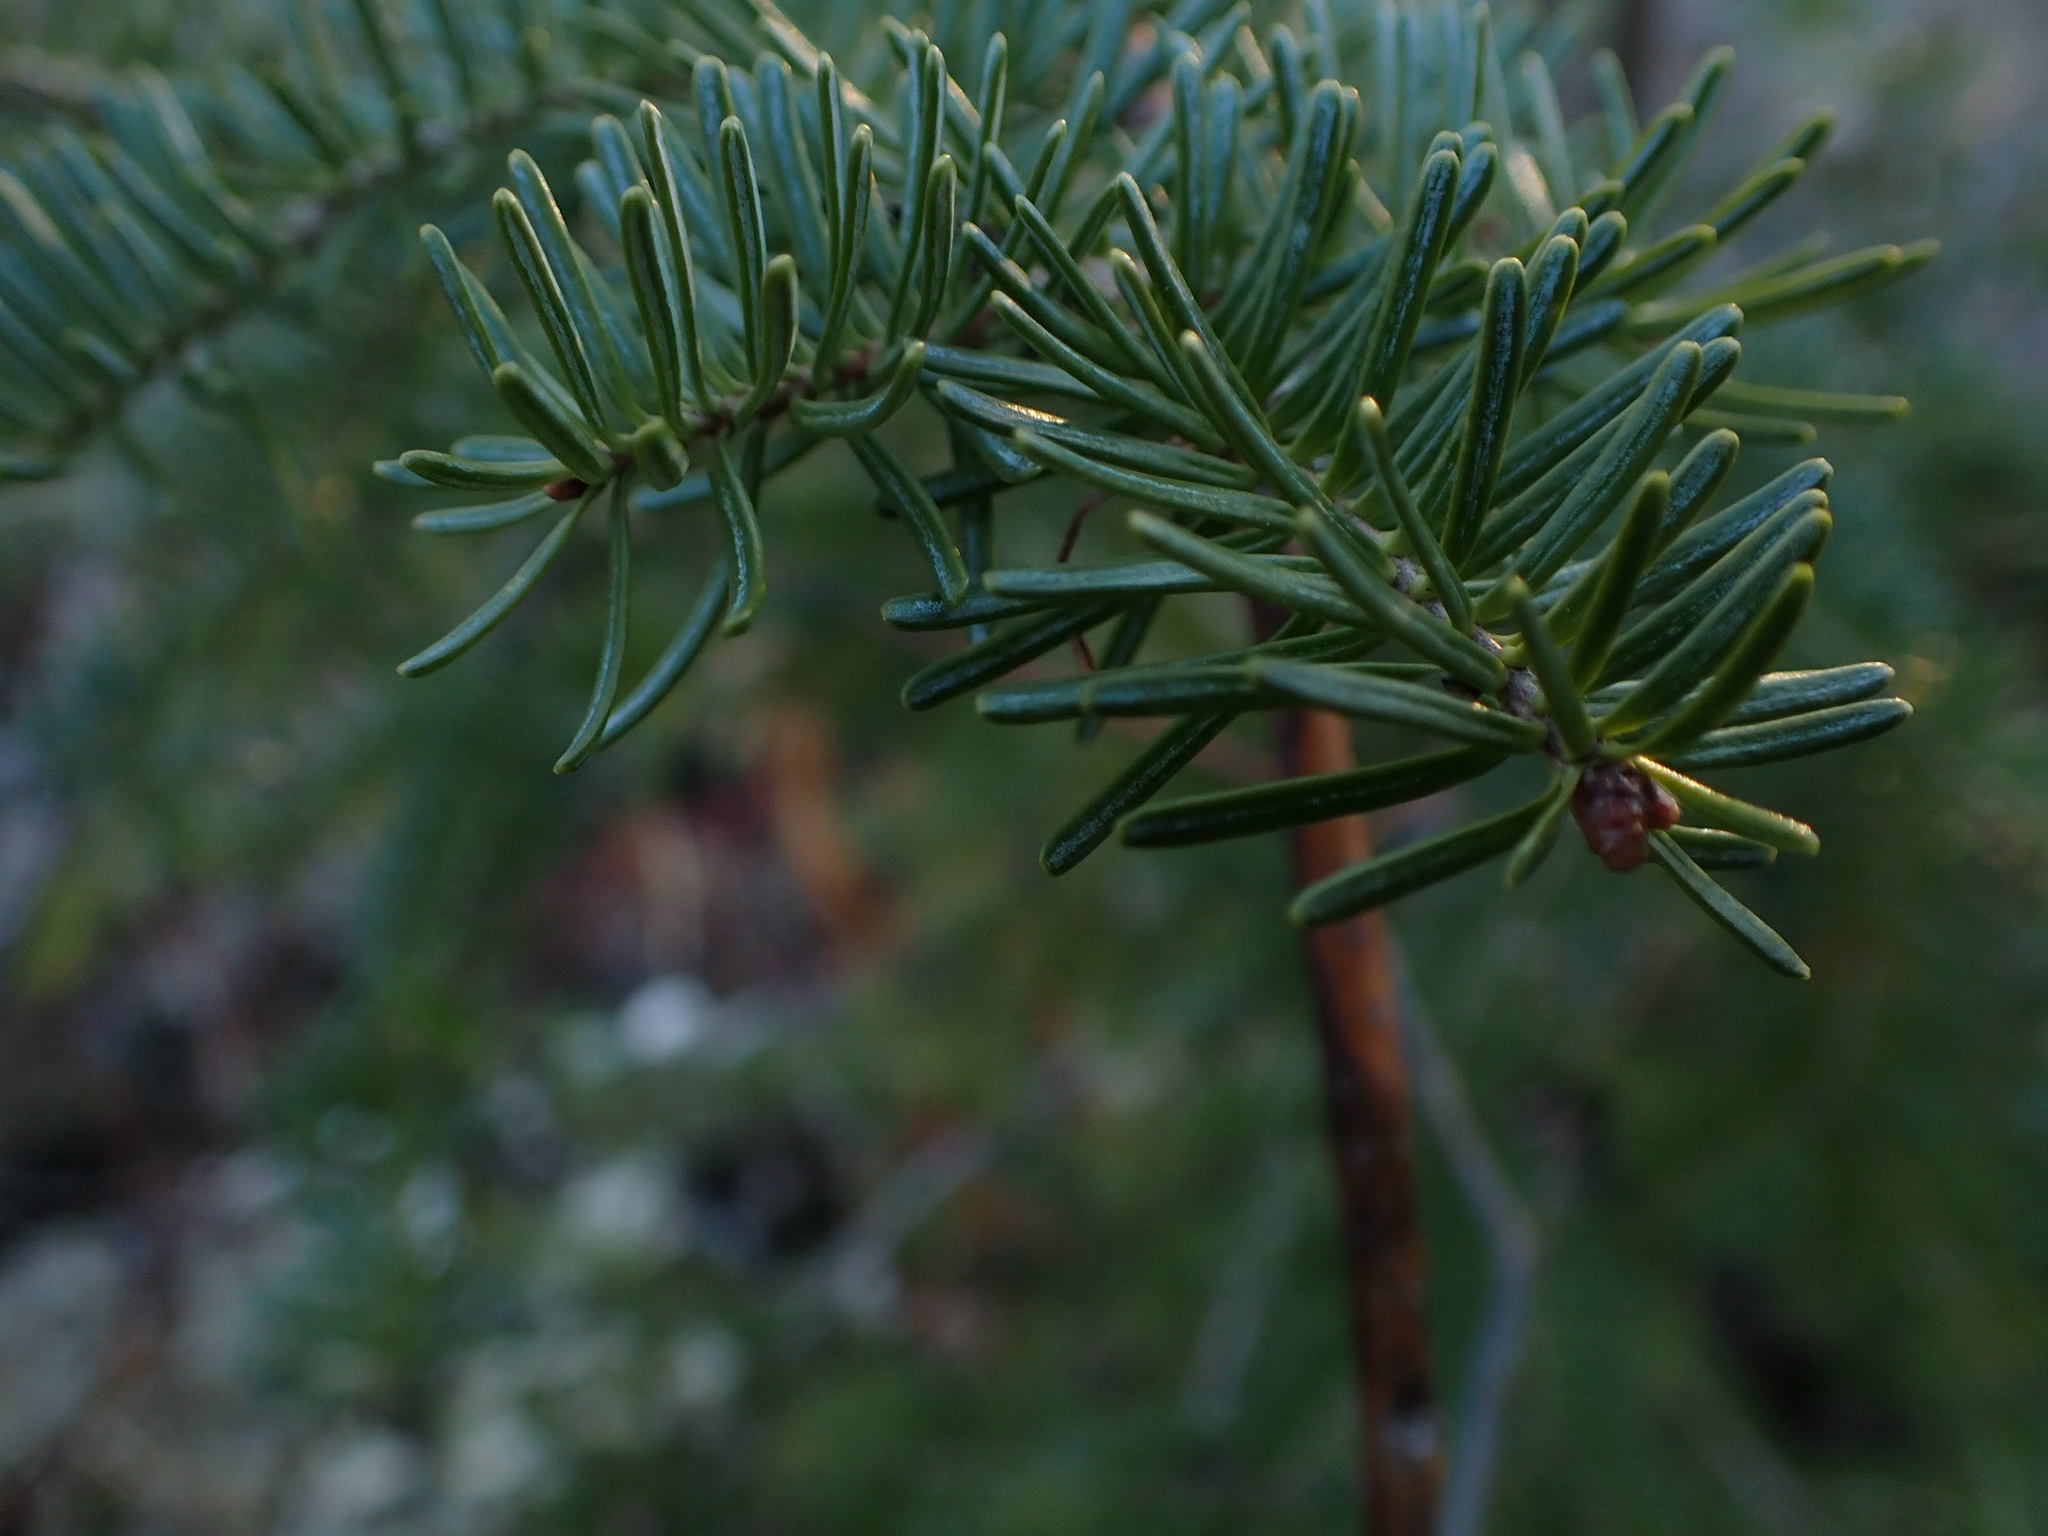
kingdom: Plantae
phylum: Tracheophyta
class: Pinopsida
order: Pinales
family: Pinaceae
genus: Picea
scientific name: Picea glauca
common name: White spruce
